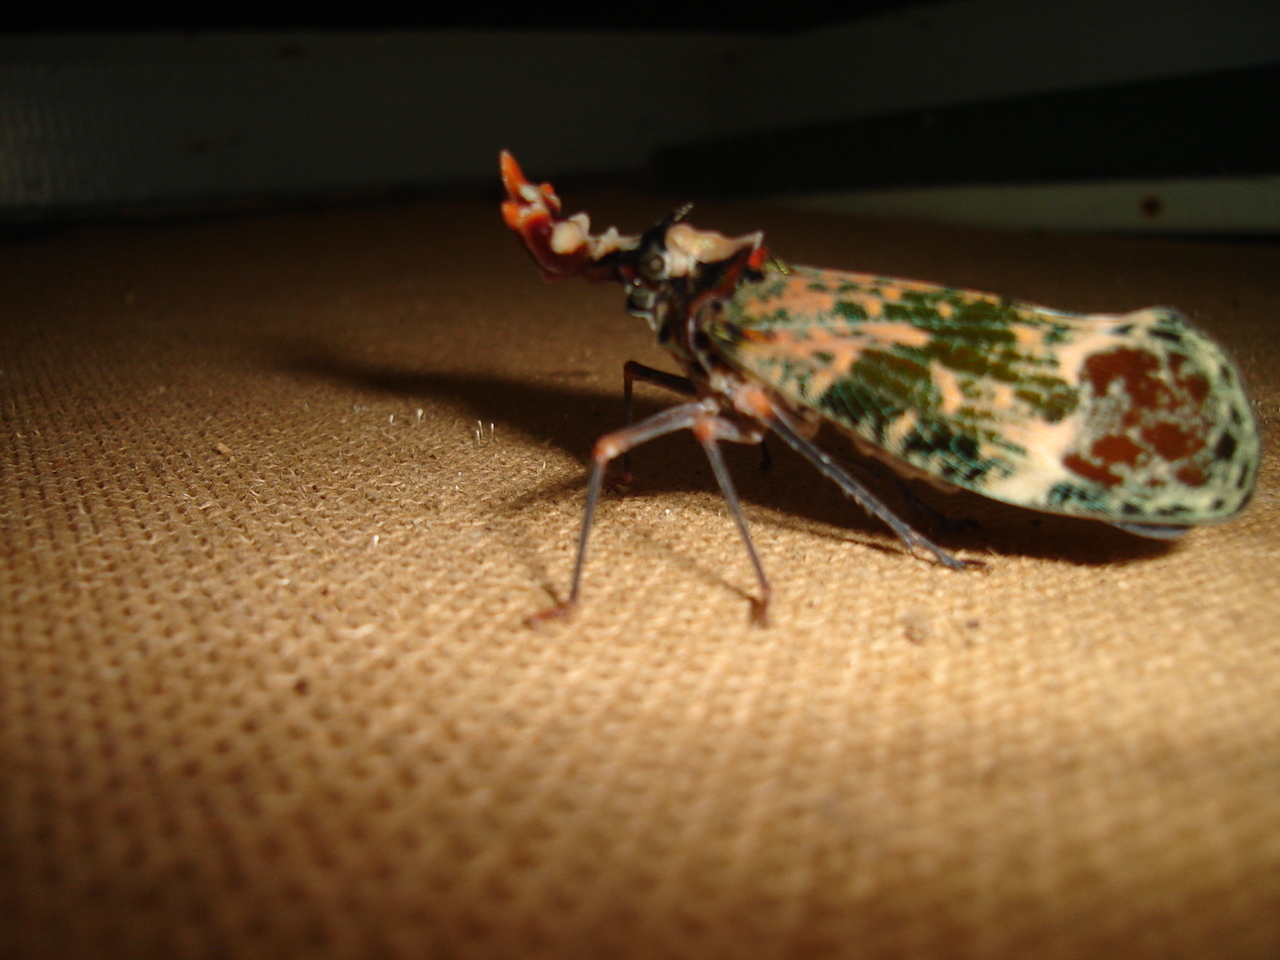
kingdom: Animalia
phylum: Arthropoda
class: Insecta
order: Hemiptera
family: Fulgoridae
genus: Phrictus
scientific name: Phrictus regalis
